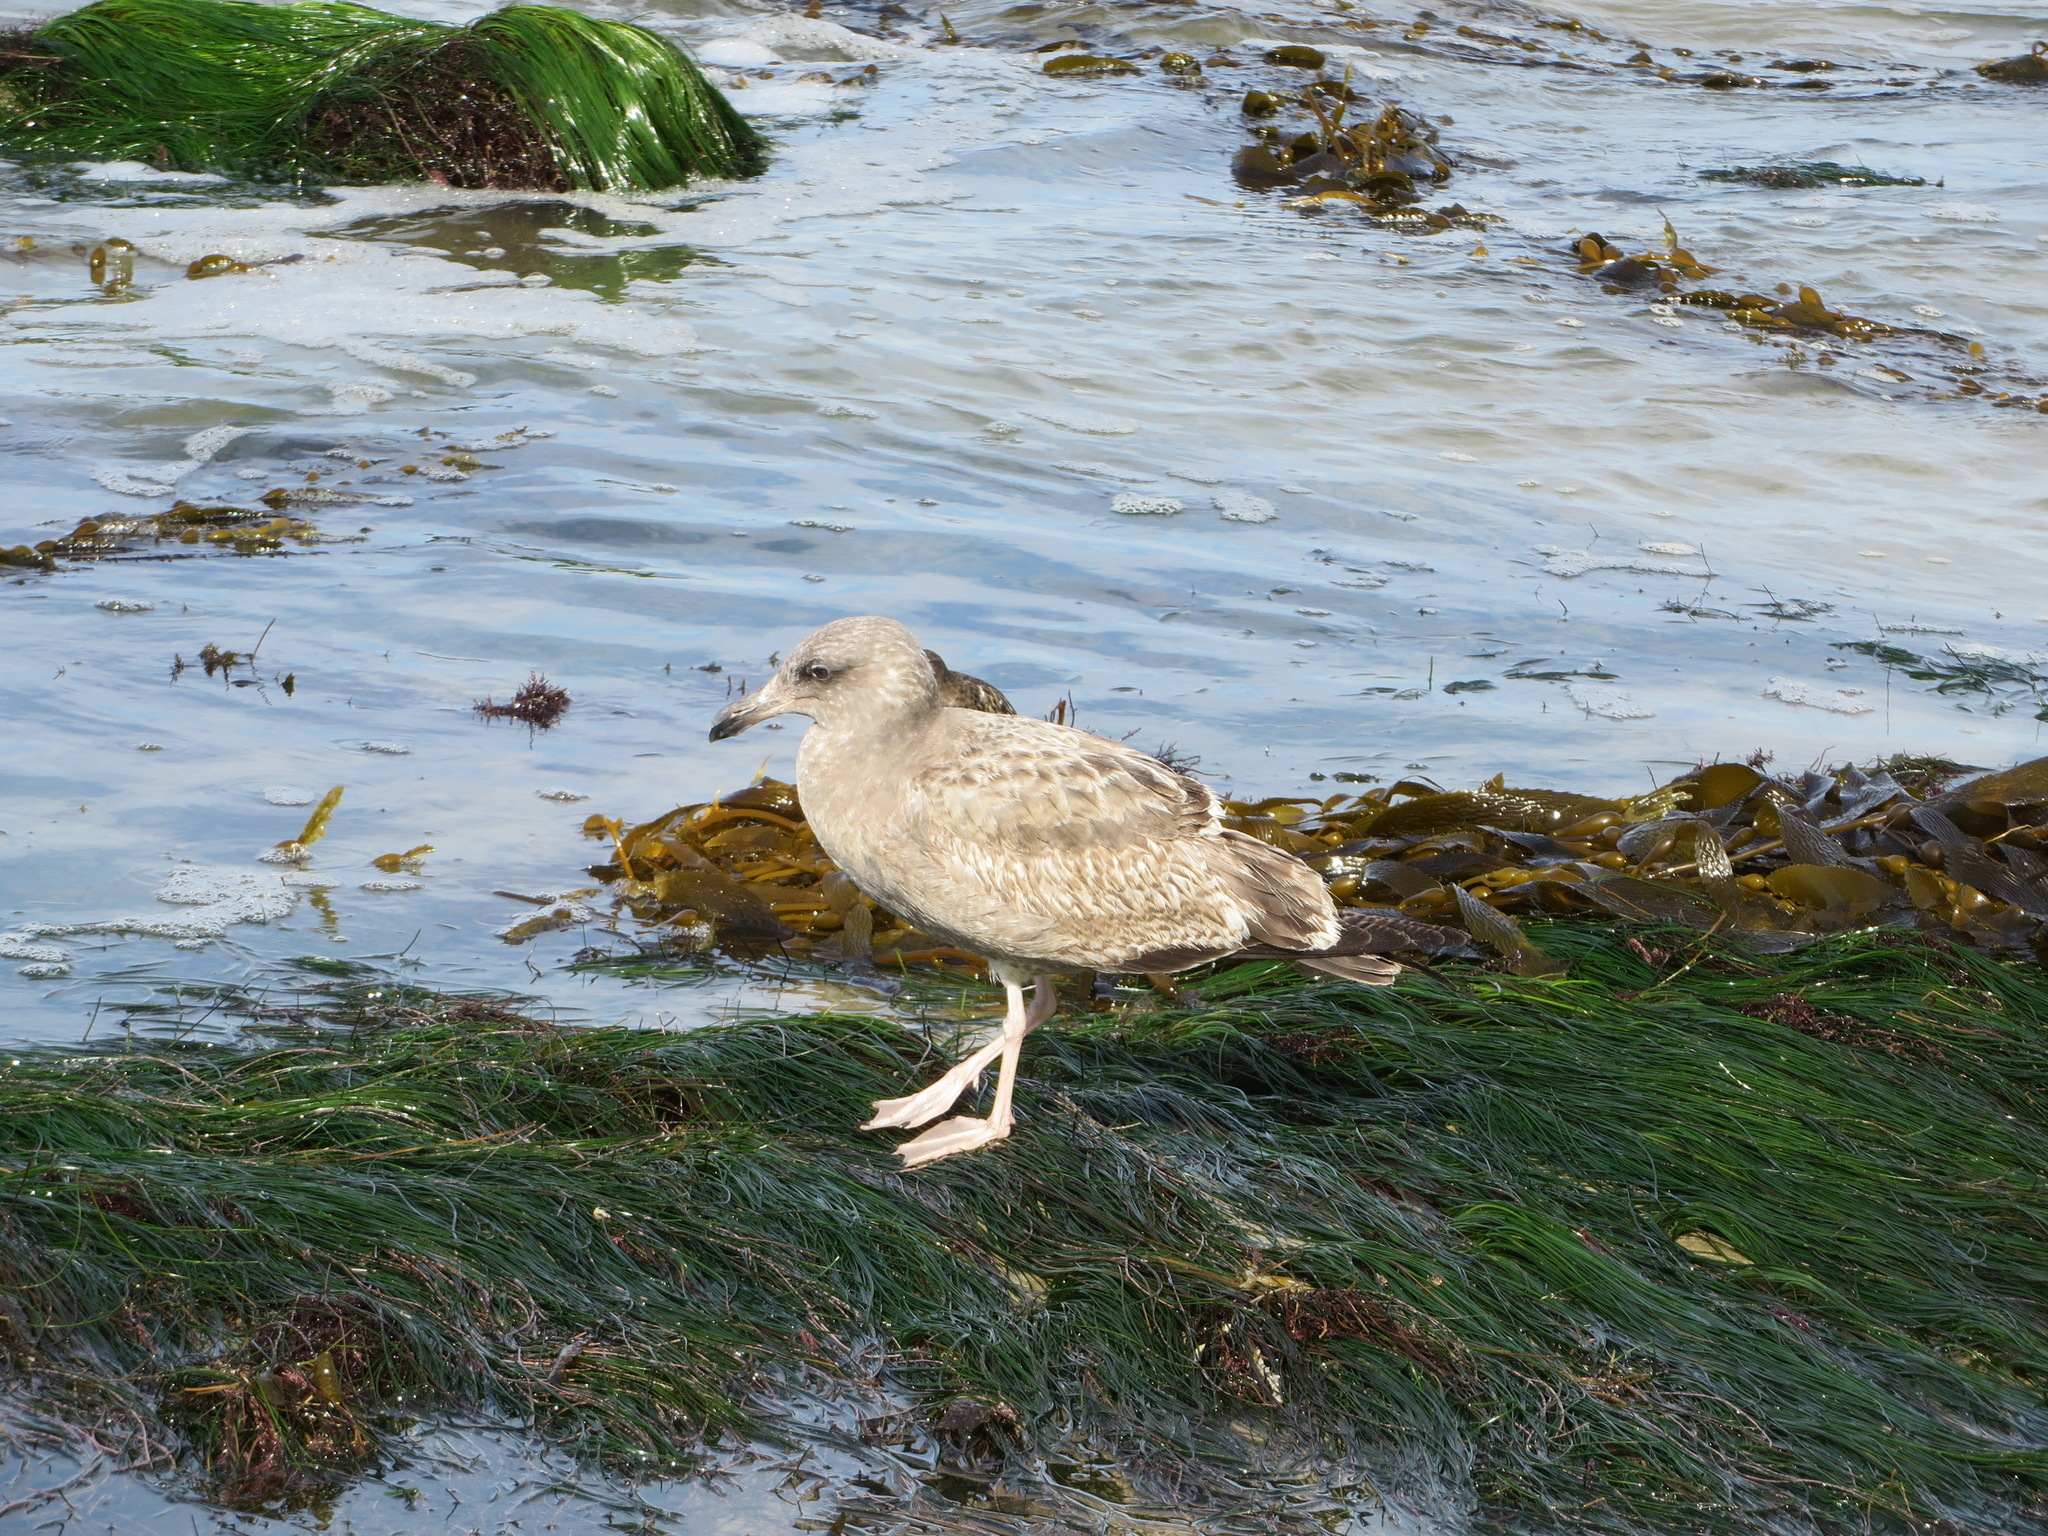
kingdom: Animalia
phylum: Chordata
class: Aves
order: Charadriiformes
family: Laridae
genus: Larus
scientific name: Larus occidentalis
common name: Western gull
